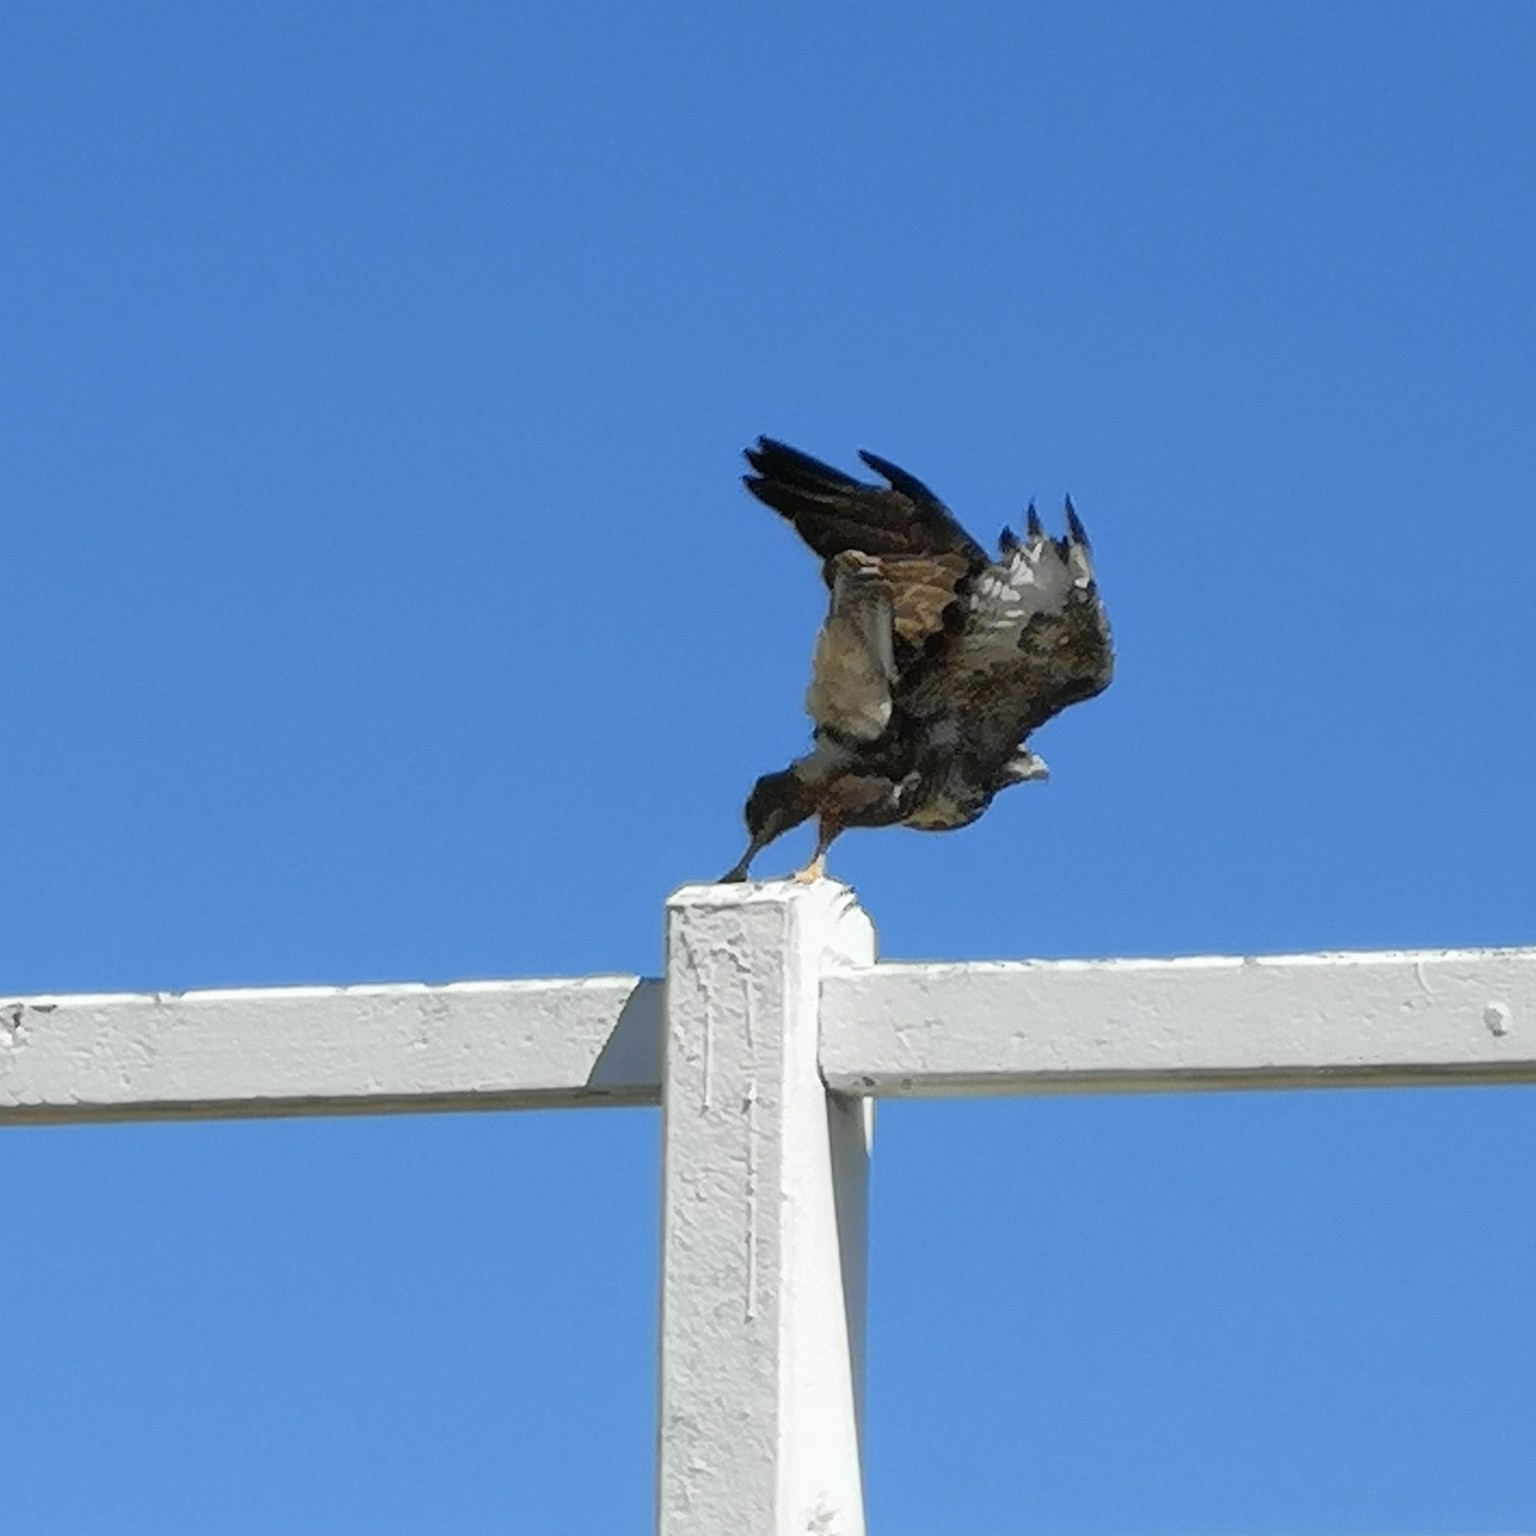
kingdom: Animalia
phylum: Chordata
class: Aves
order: Accipitriformes
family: Accipitridae
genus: Buteo
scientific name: Buteo buteo
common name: Common buzzard
